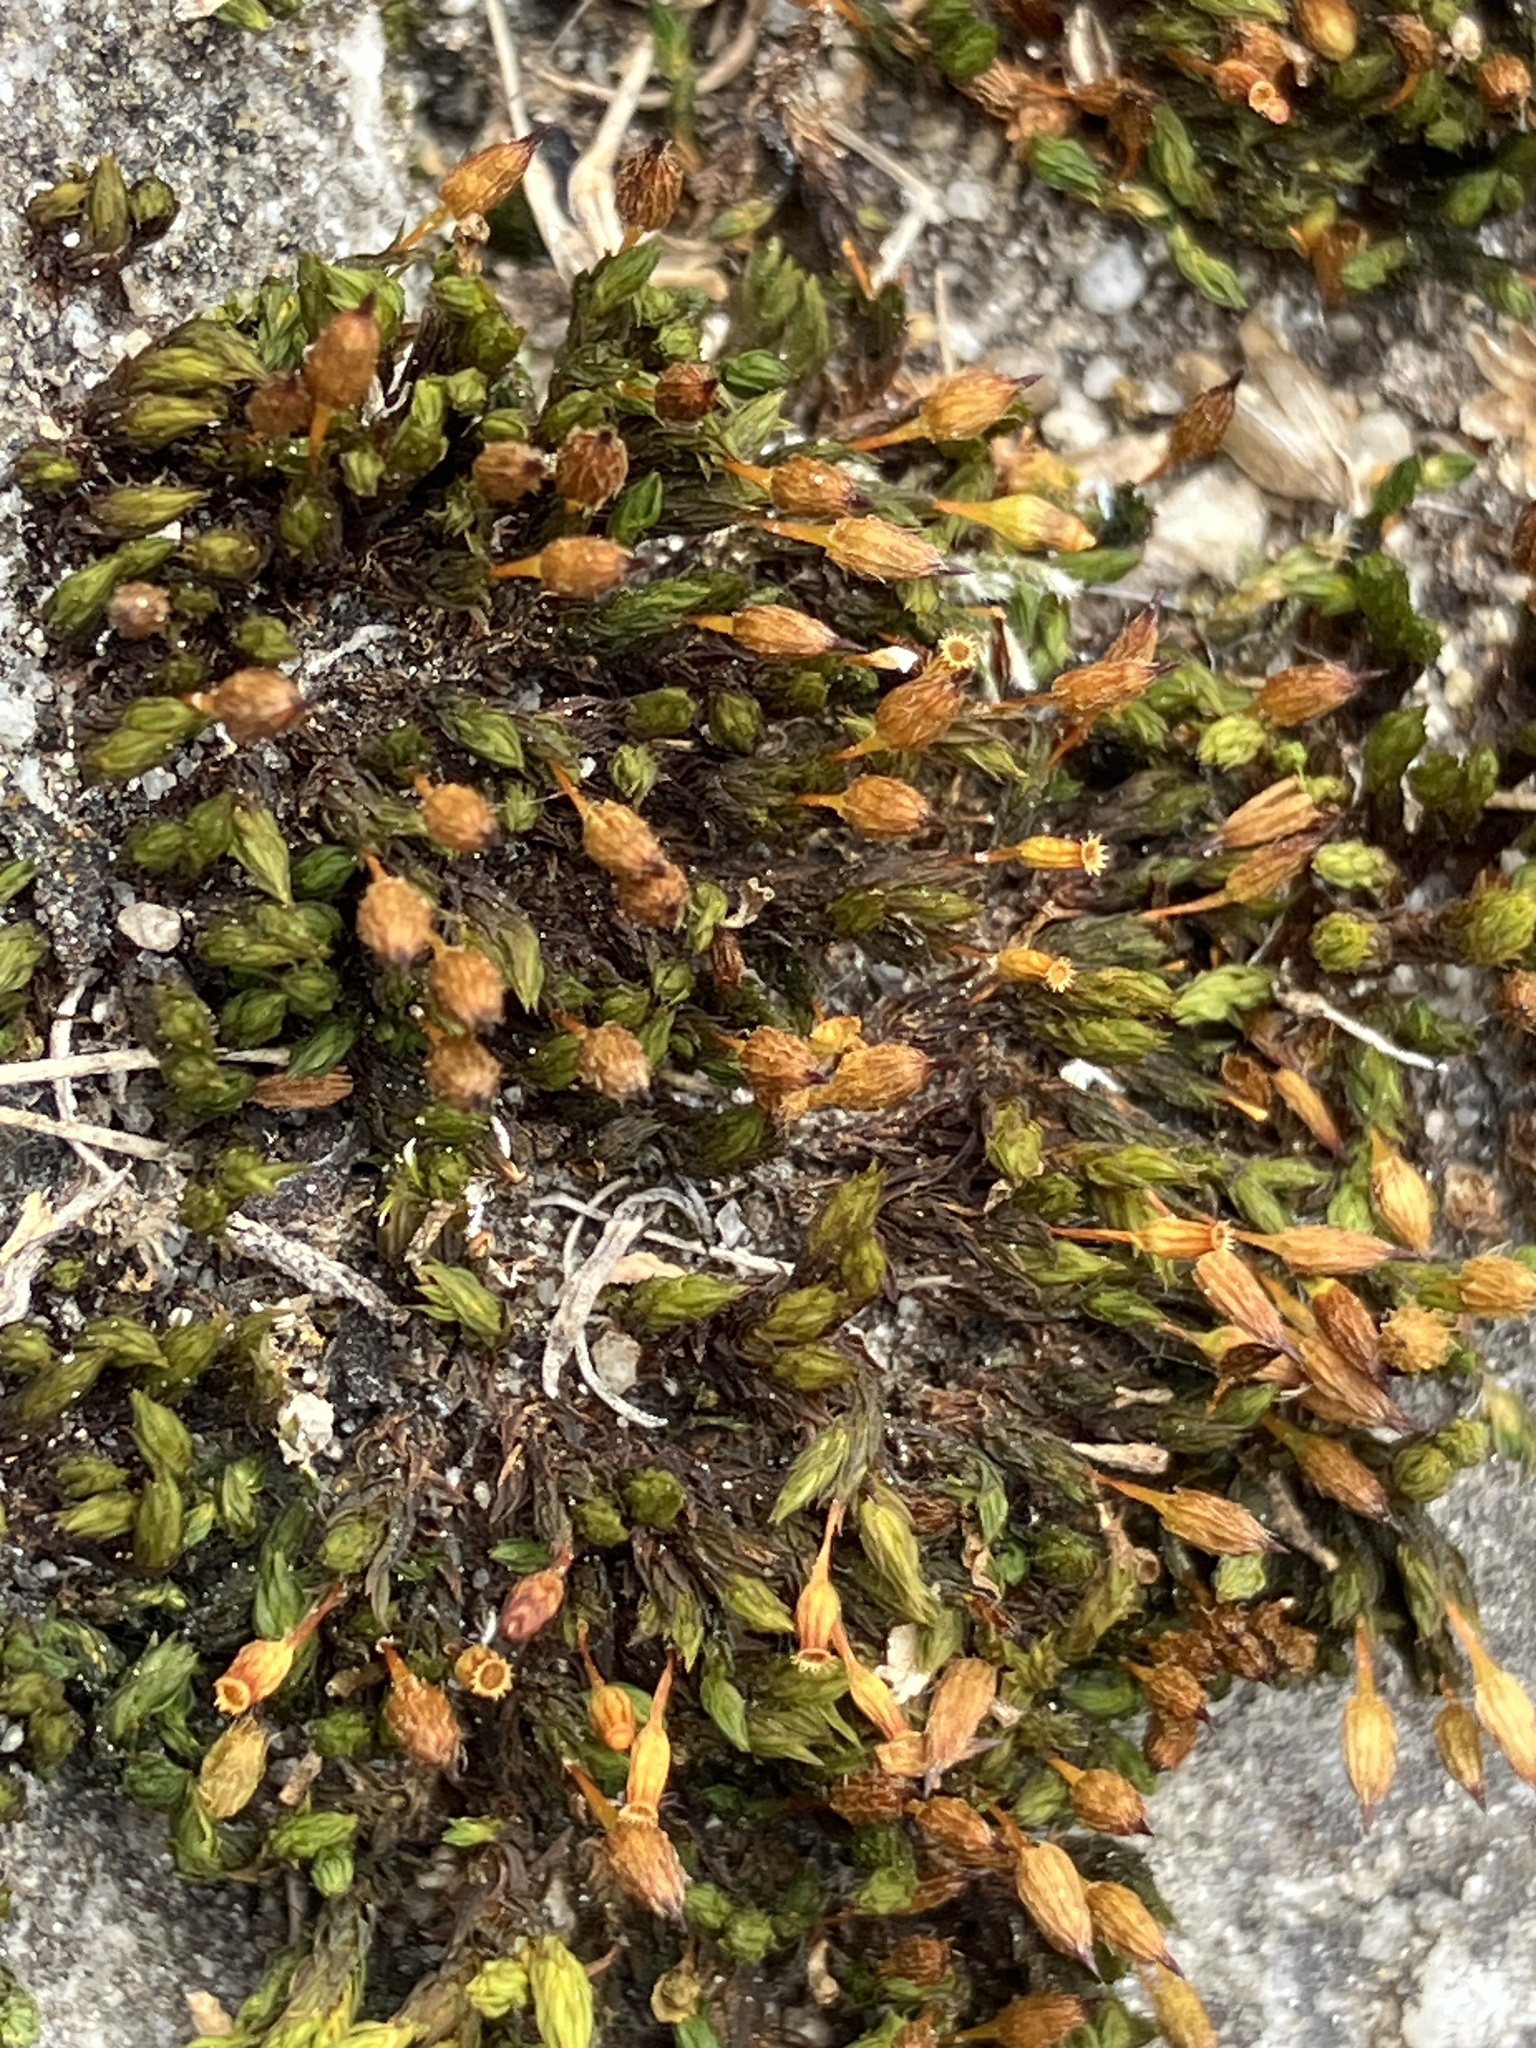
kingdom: Plantae
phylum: Bryophyta
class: Bryopsida
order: Orthotrichales
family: Orthotrichaceae
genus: Orthotrichum
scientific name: Orthotrichum anomalum
